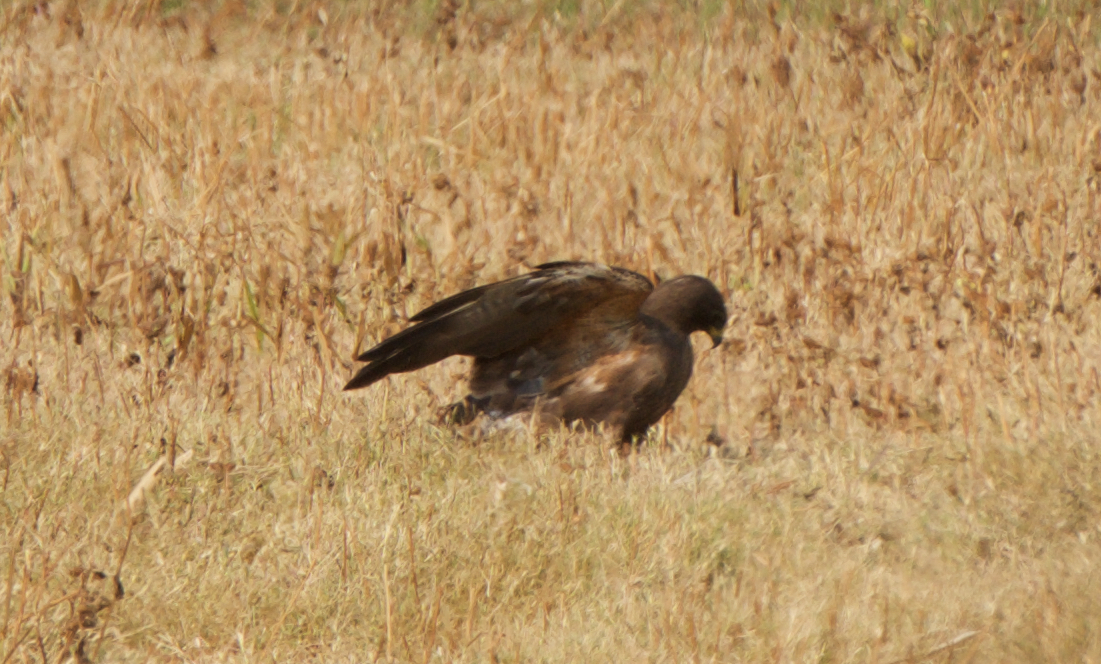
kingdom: Animalia
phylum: Chordata
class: Aves
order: Accipitriformes
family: Accipitridae
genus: Buteo
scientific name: Buteo swainsoni
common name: Swainson's hawk
